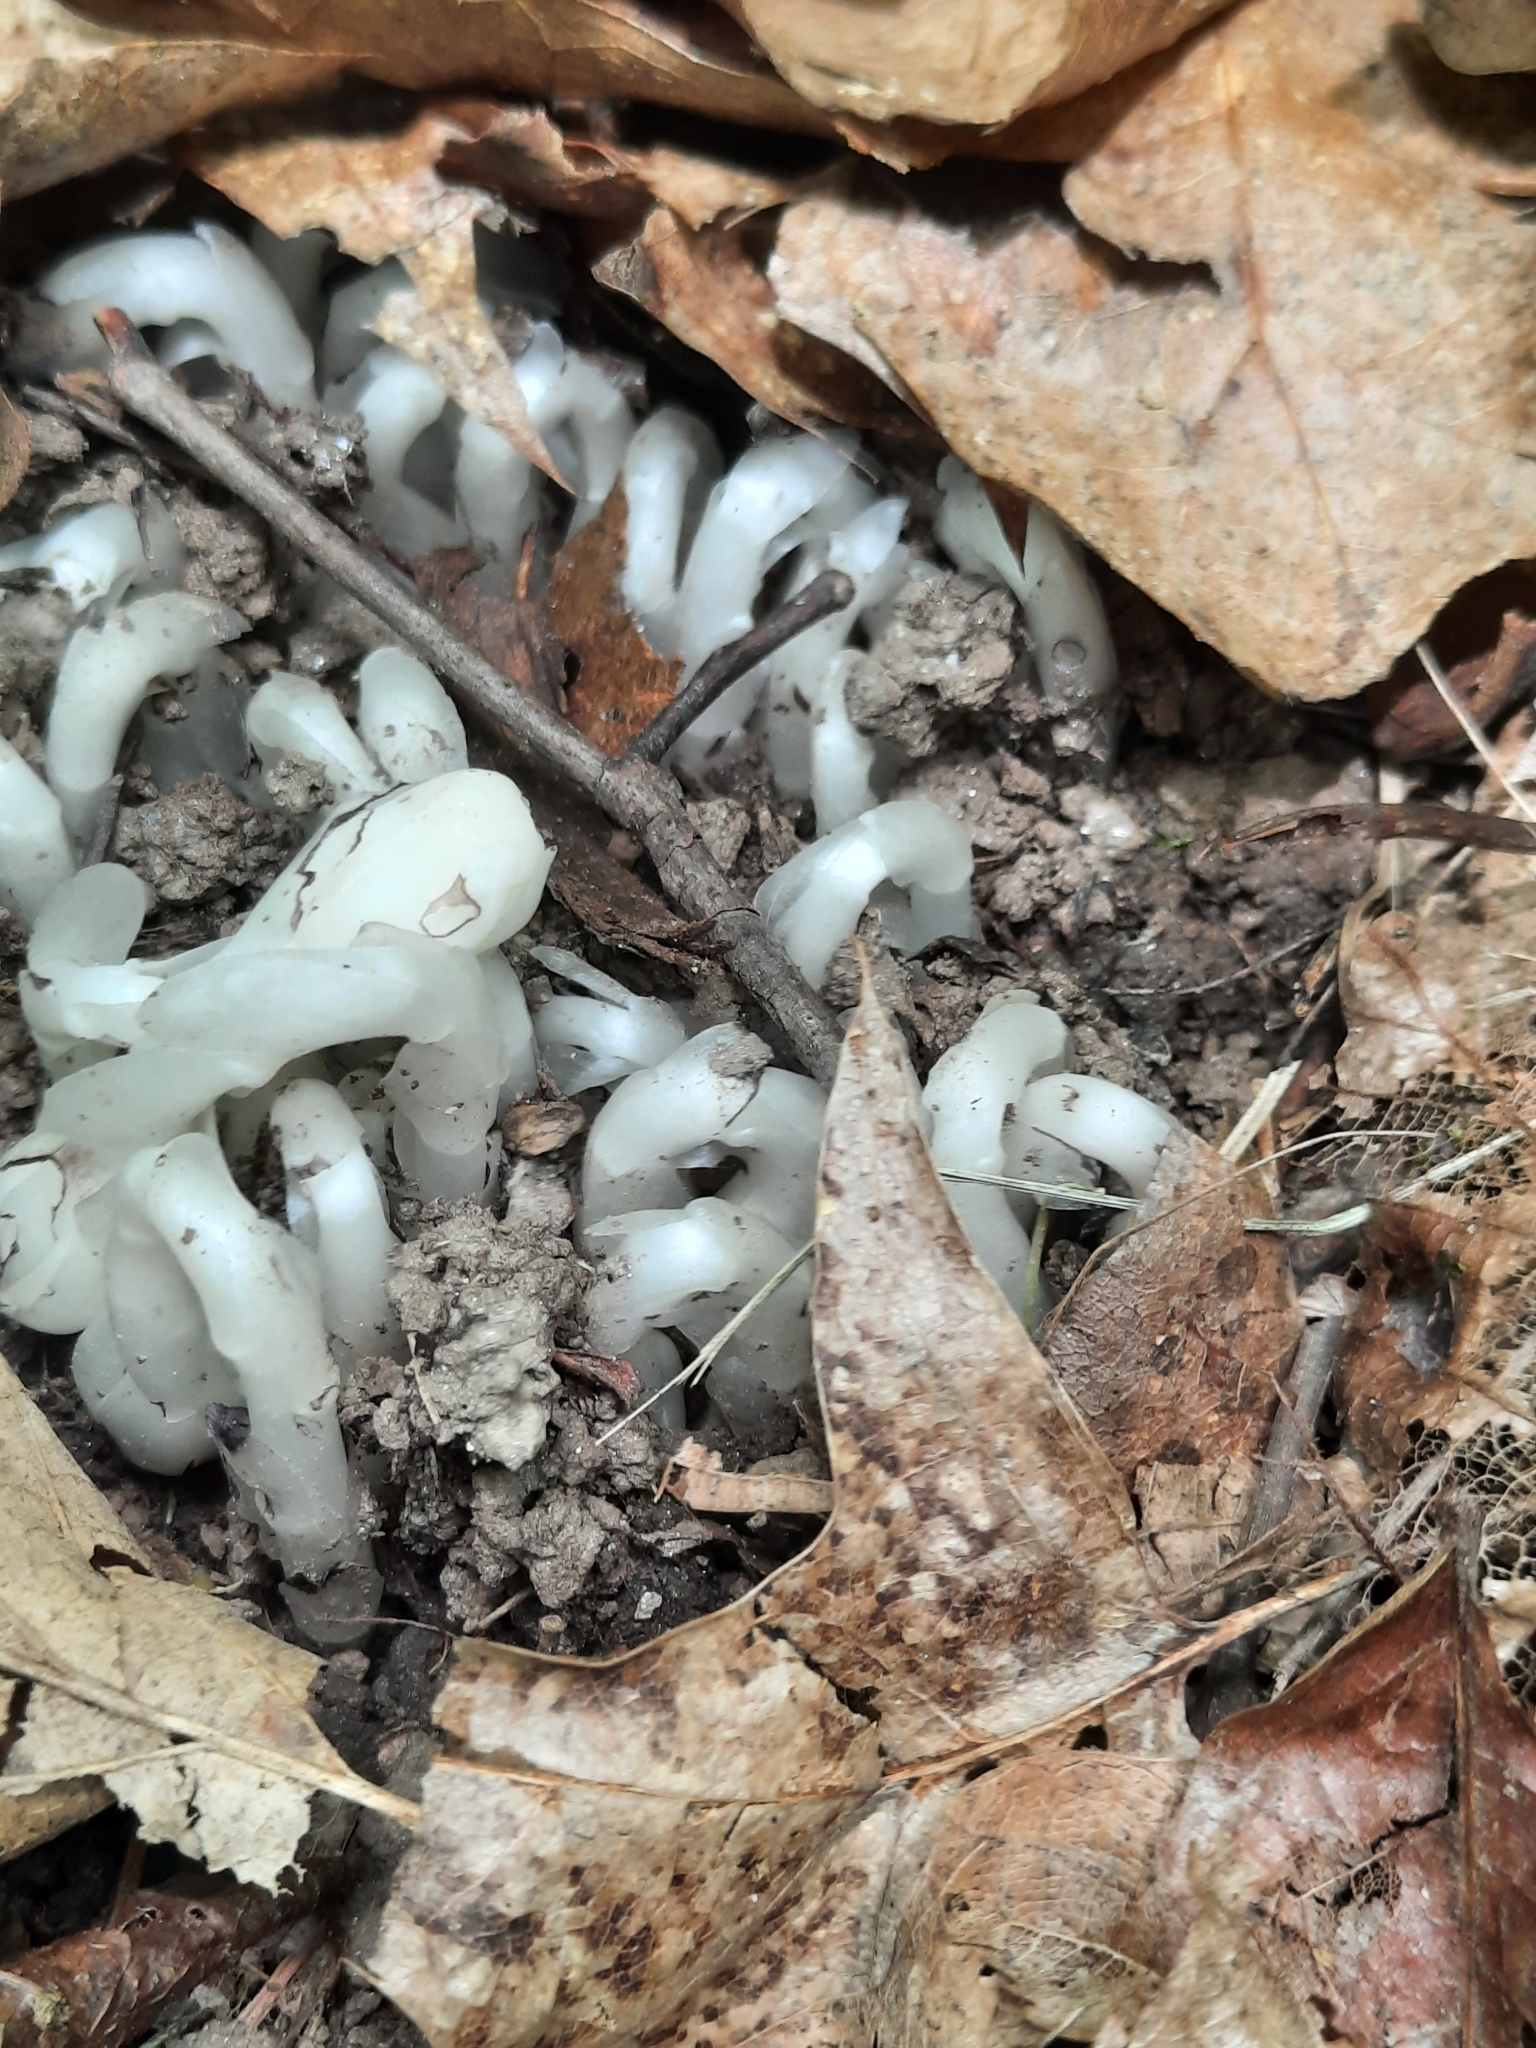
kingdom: Plantae
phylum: Tracheophyta
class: Magnoliopsida
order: Ericales
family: Ericaceae
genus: Monotropa
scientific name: Monotropa uniflora
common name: Convulsion root
